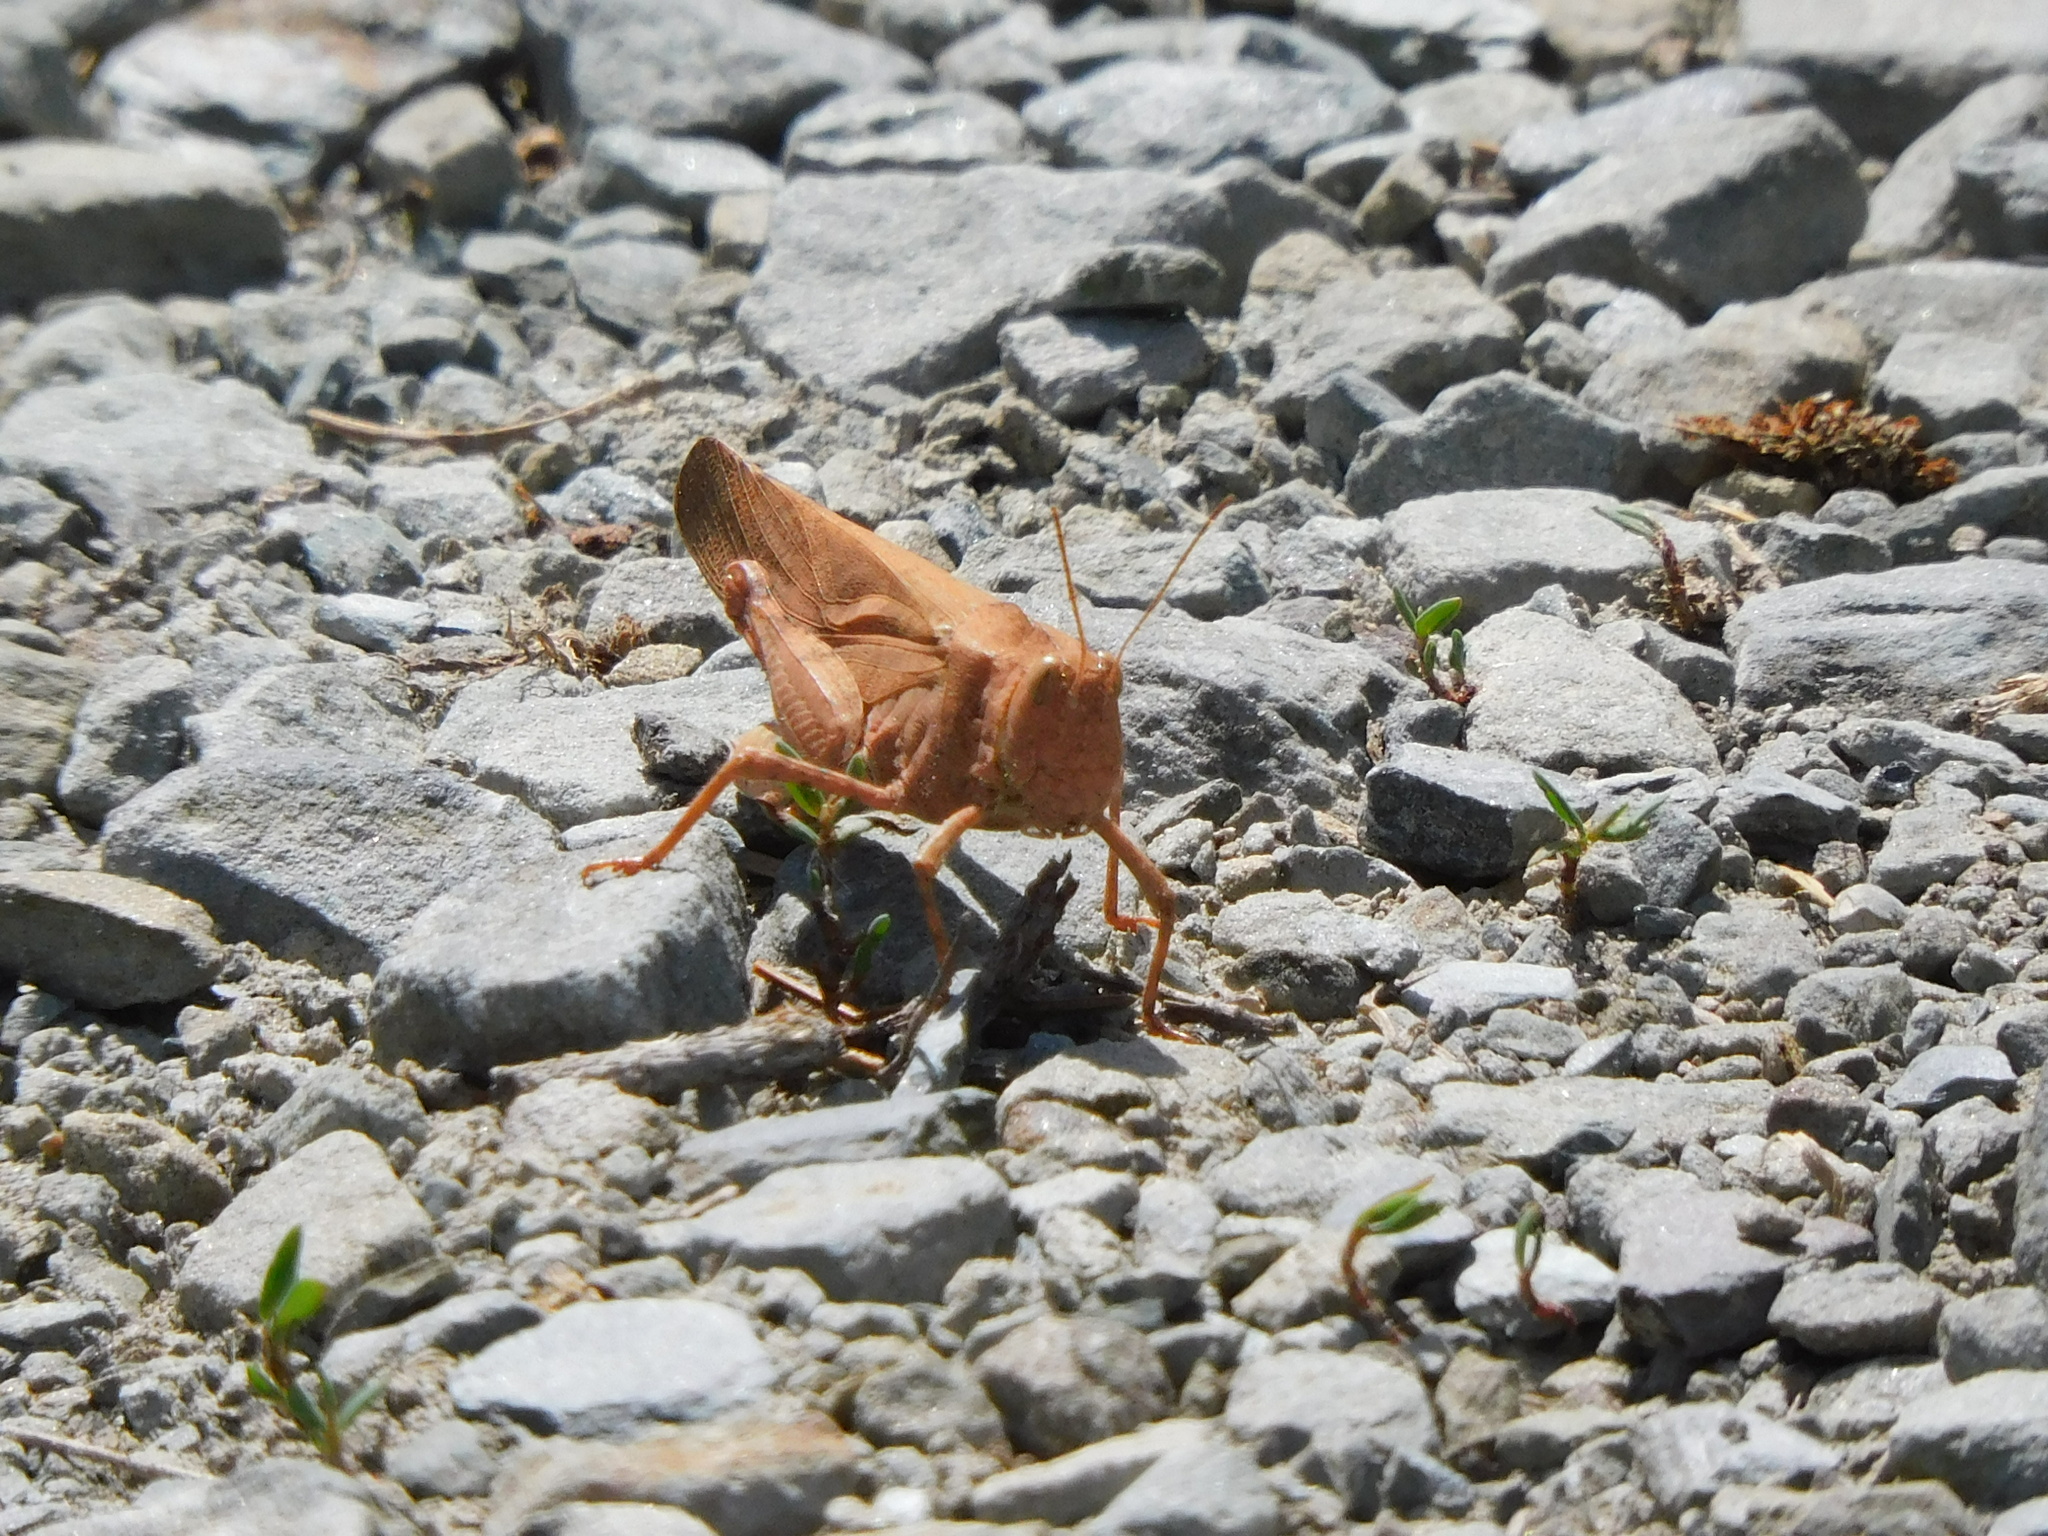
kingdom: Animalia
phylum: Arthropoda
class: Insecta
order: Orthoptera
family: Acrididae
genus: Dissosteira
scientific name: Dissosteira carolina
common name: Carolina grasshopper
